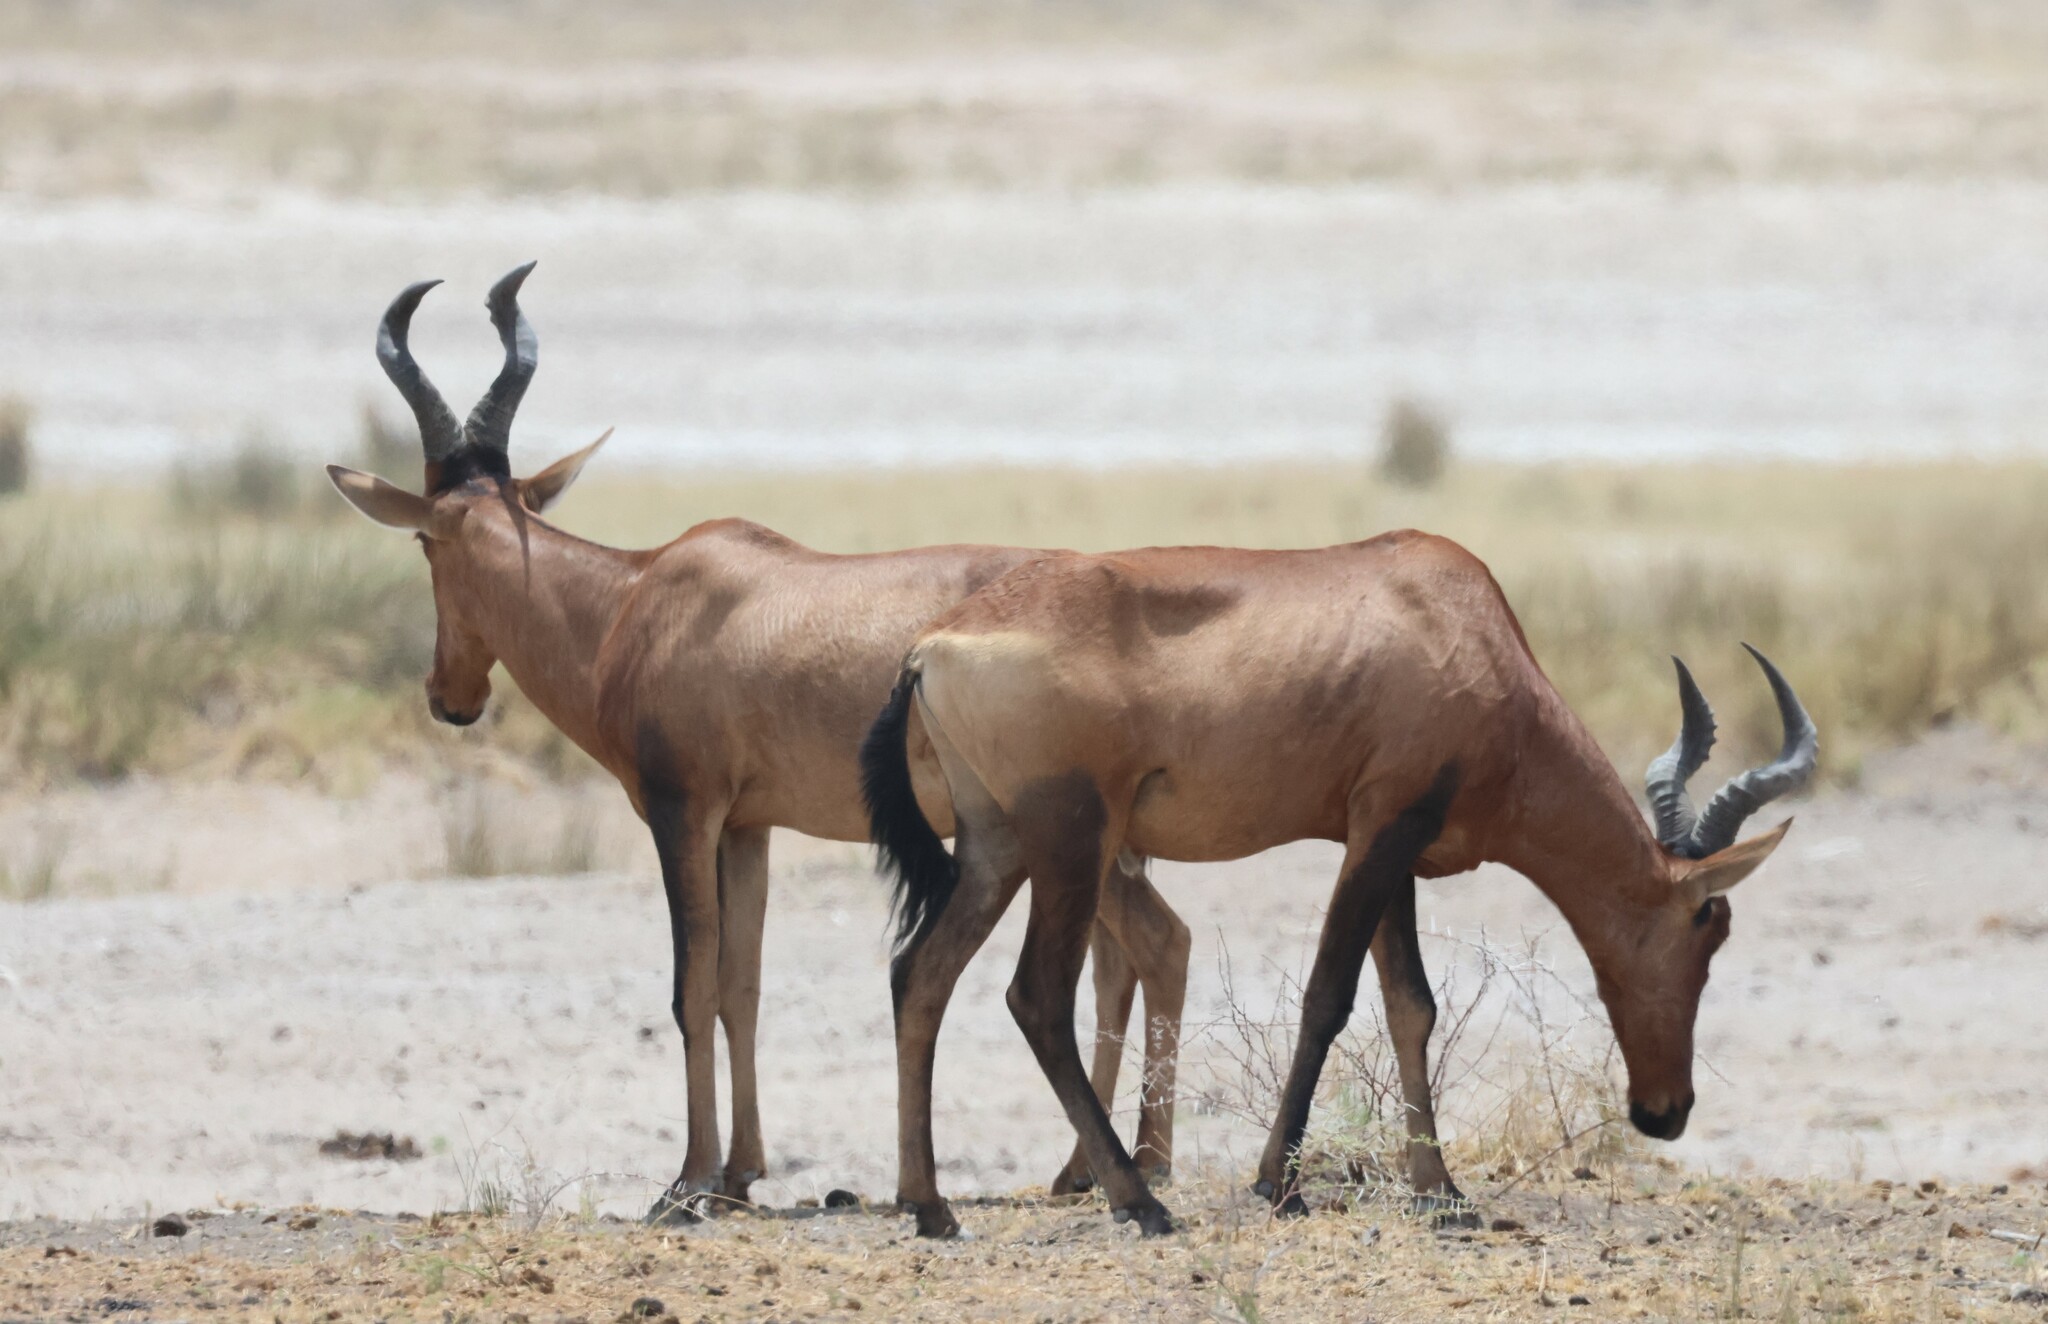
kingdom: Animalia
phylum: Chordata
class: Mammalia
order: Artiodactyla
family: Bovidae
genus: Alcelaphus
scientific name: Alcelaphus caama
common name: Red hartebeest
